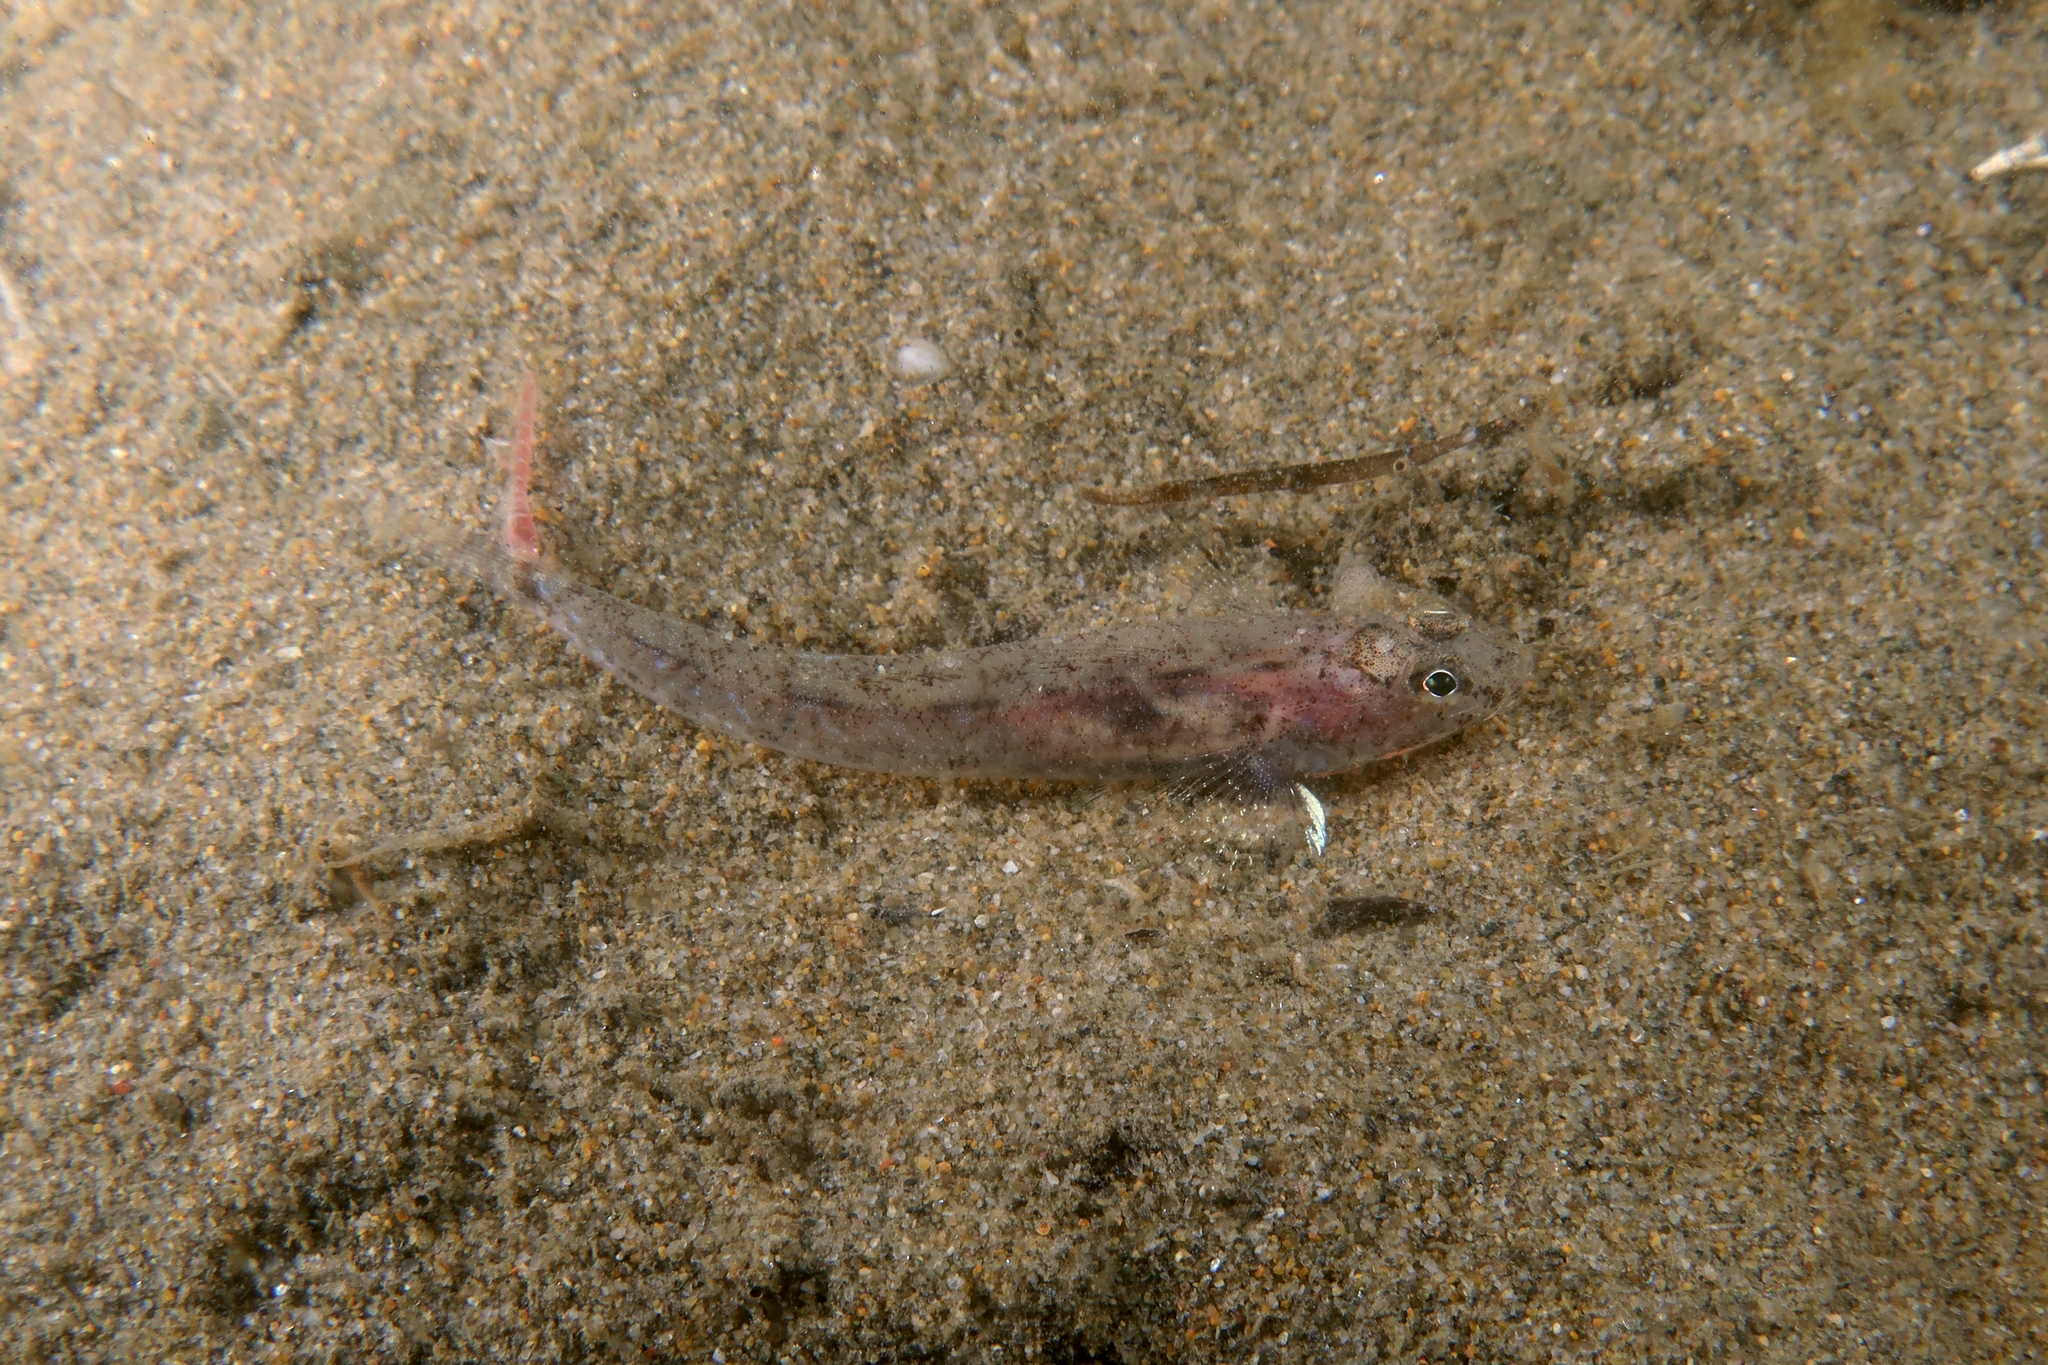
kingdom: Animalia
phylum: Chordata
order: Perciformes
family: Gobiidae
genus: Pomatoschistus
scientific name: Pomatoschistus marmoratus
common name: Marbled goby
